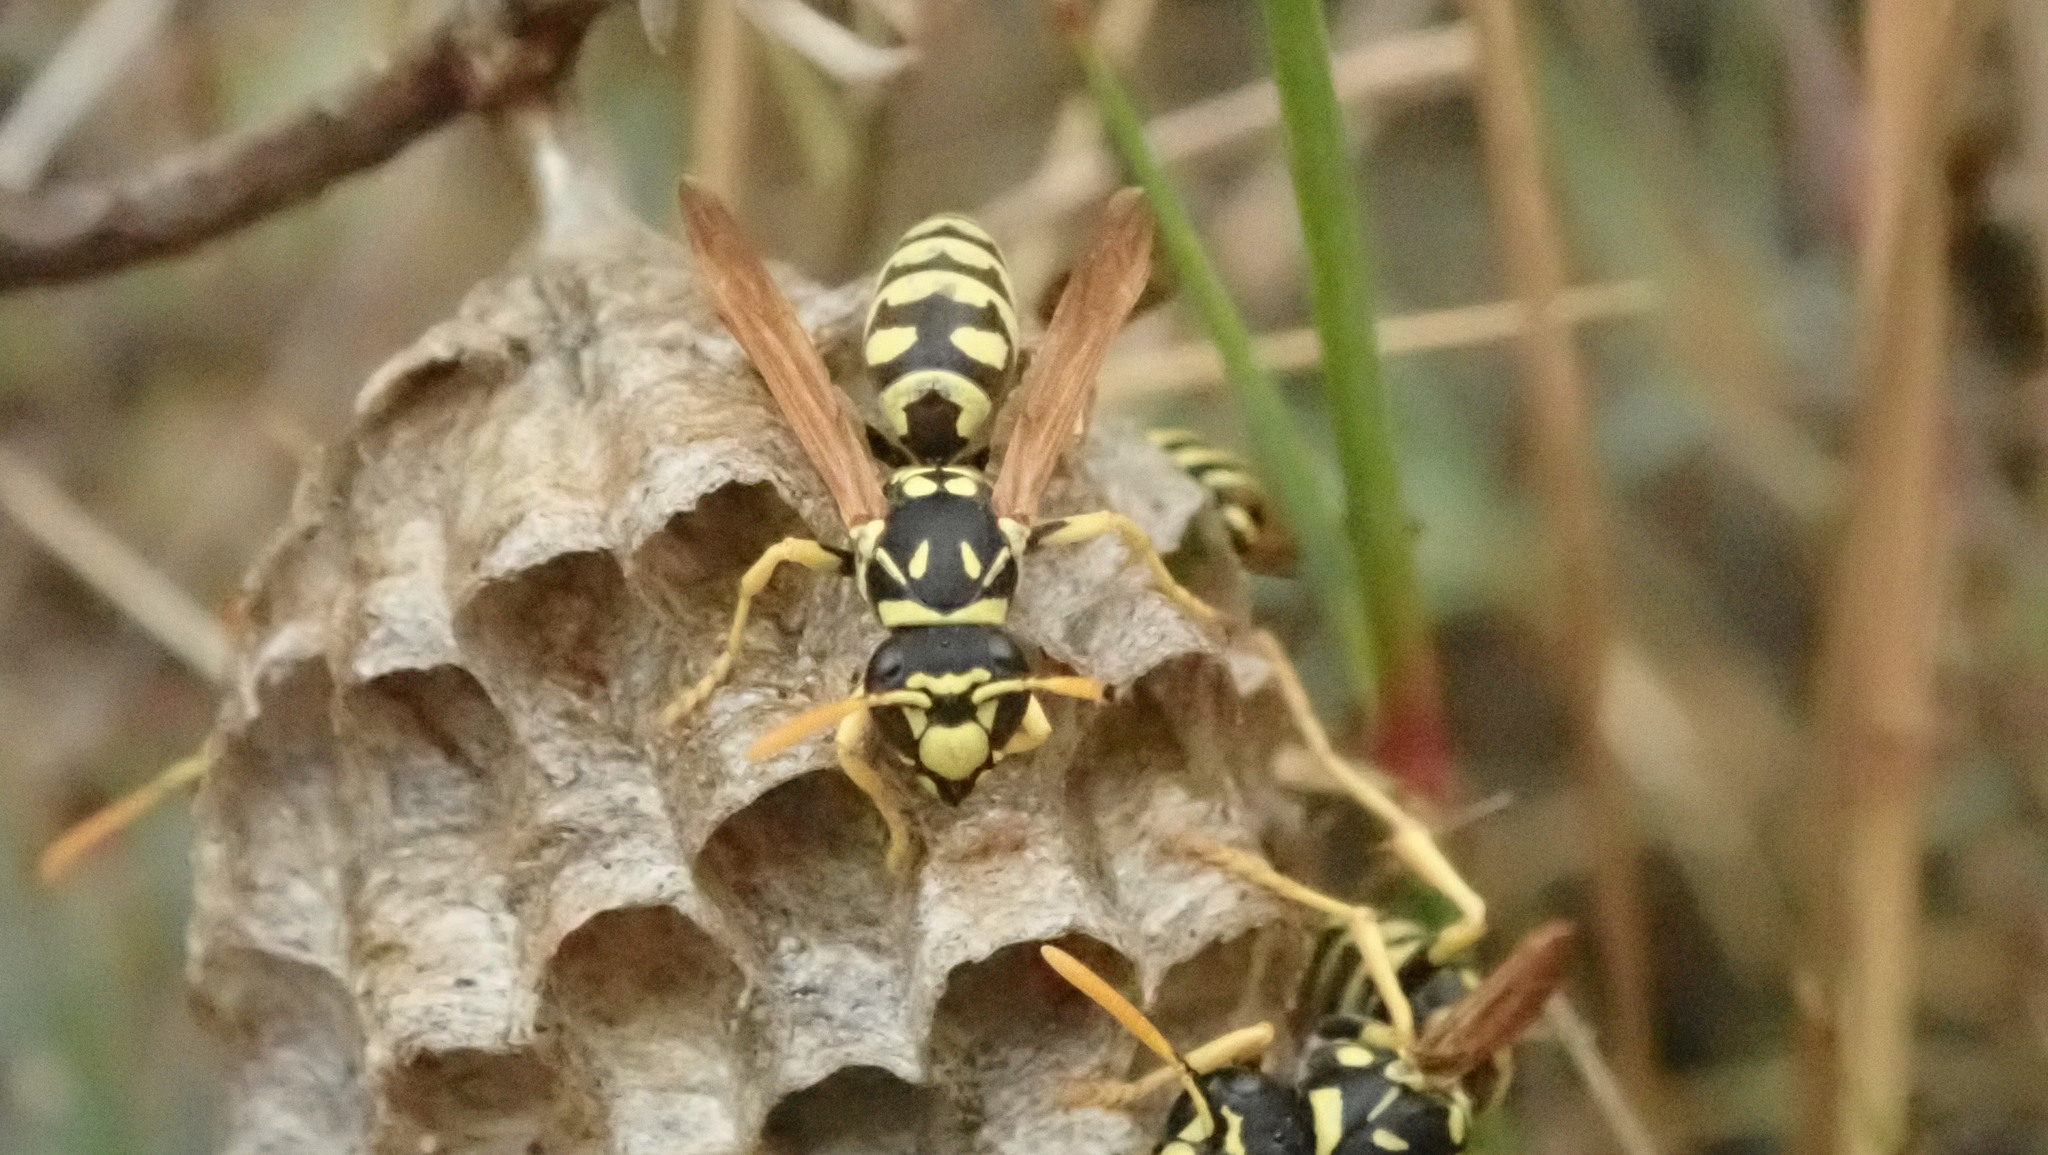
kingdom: Animalia
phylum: Arthropoda
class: Insecta
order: Hymenoptera
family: Eumenidae
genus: Polistes
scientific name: Polistes gallicus
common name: Paper wasp
